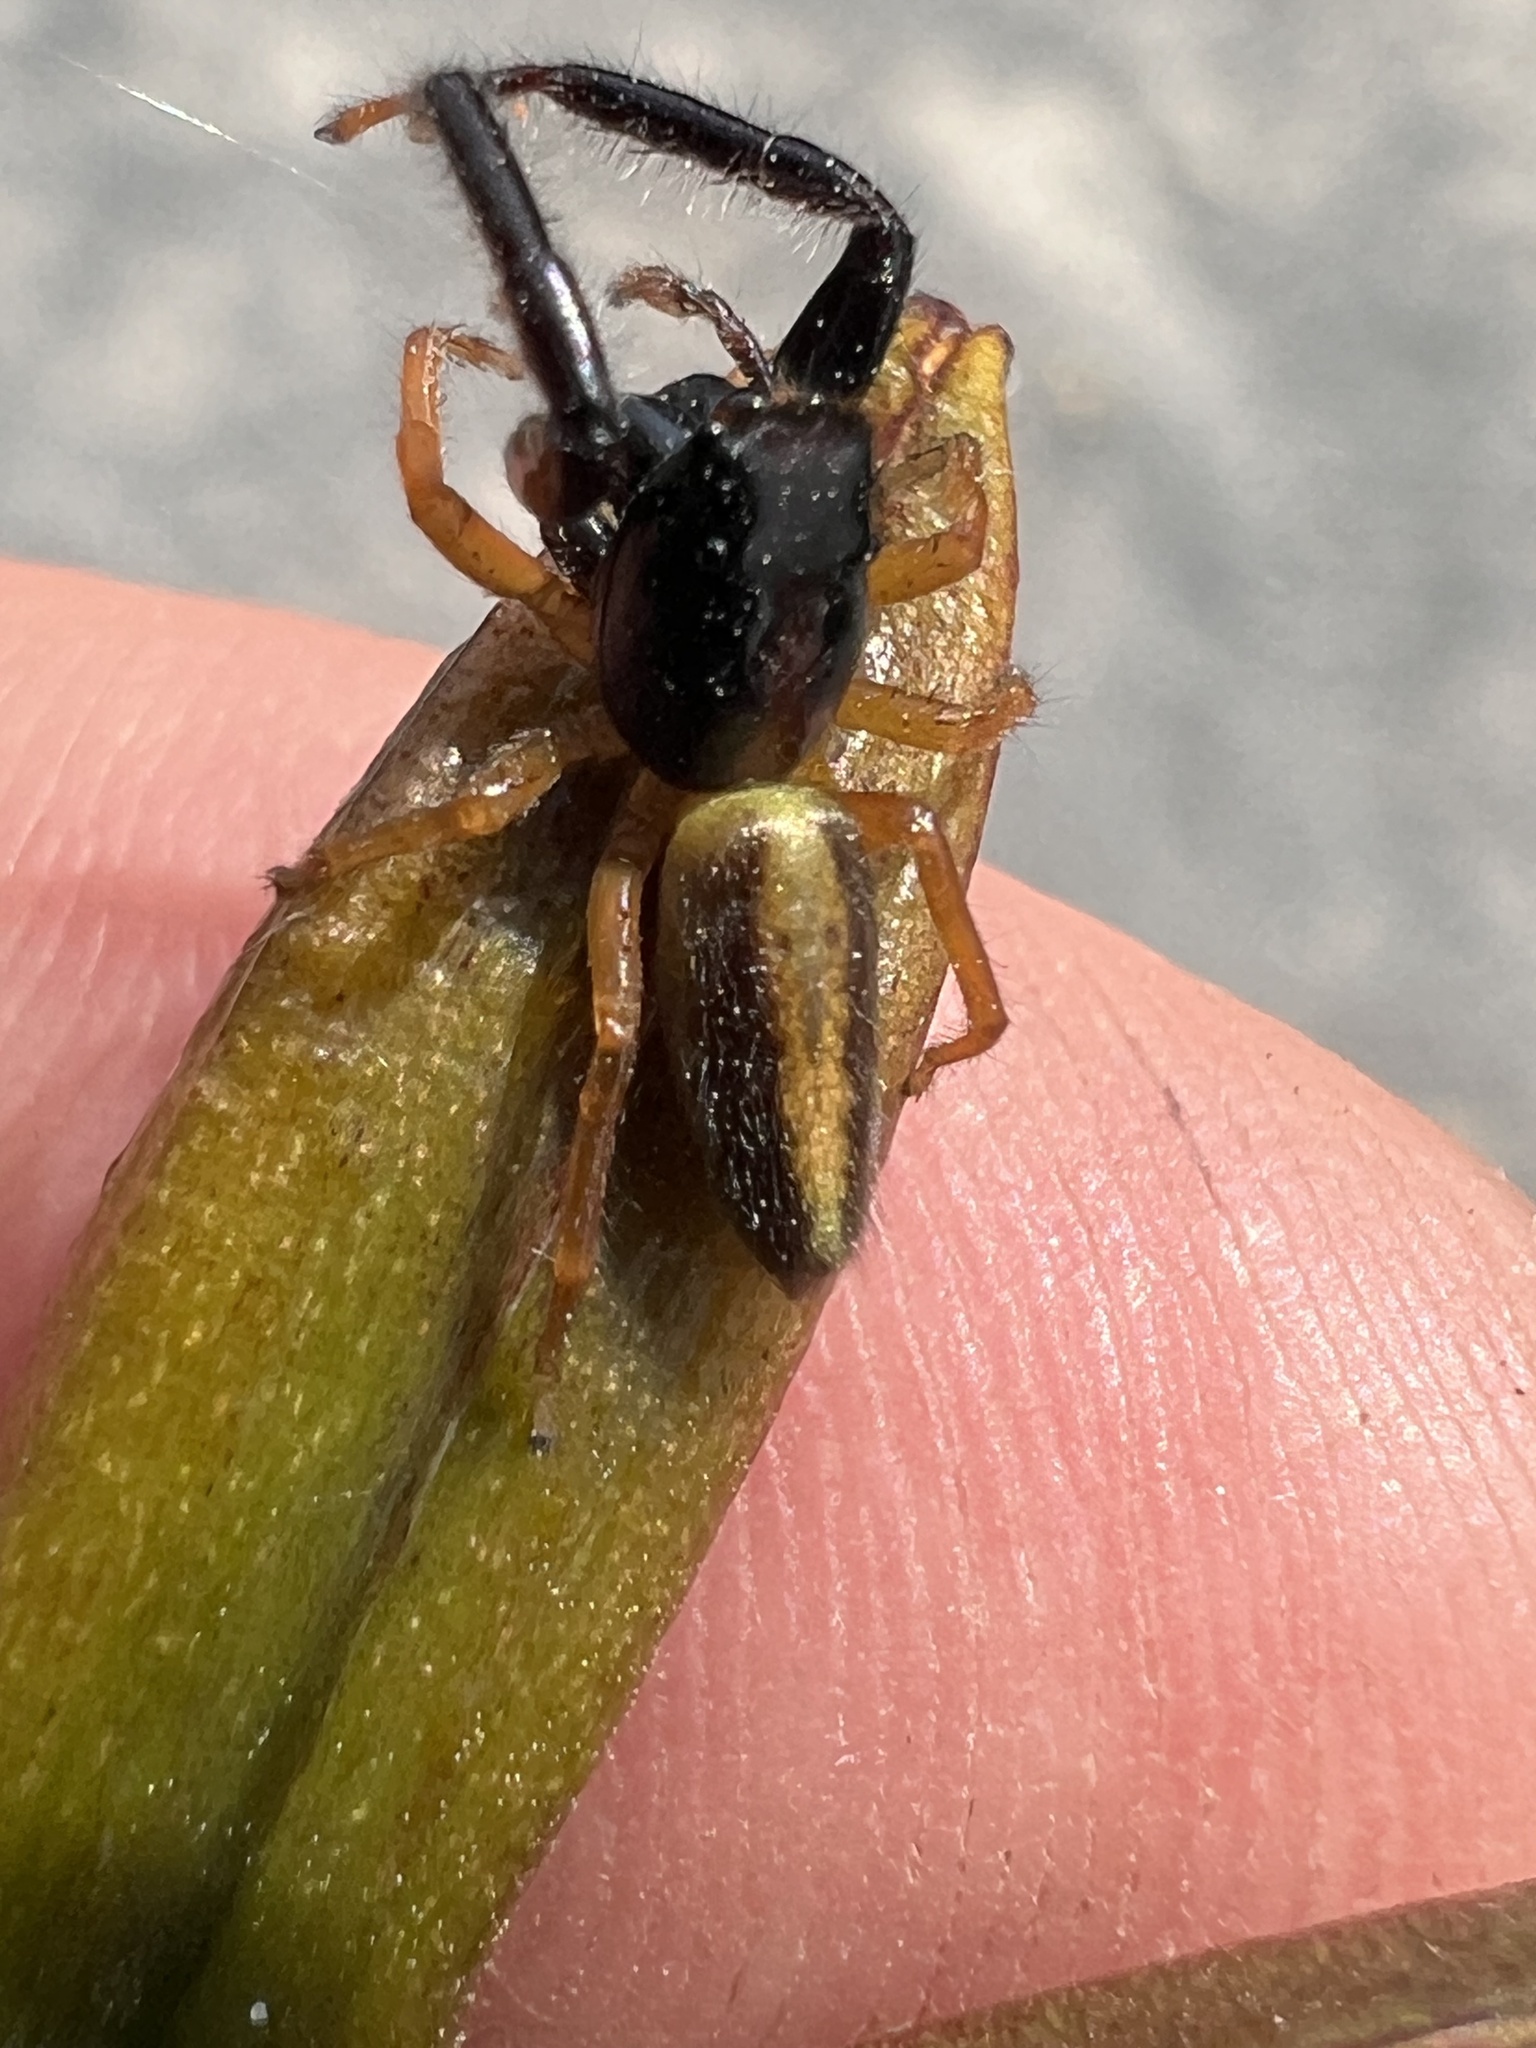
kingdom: Animalia
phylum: Arthropoda
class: Arachnida
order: Araneae
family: Salticidae
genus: Trite
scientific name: Trite planiceps
